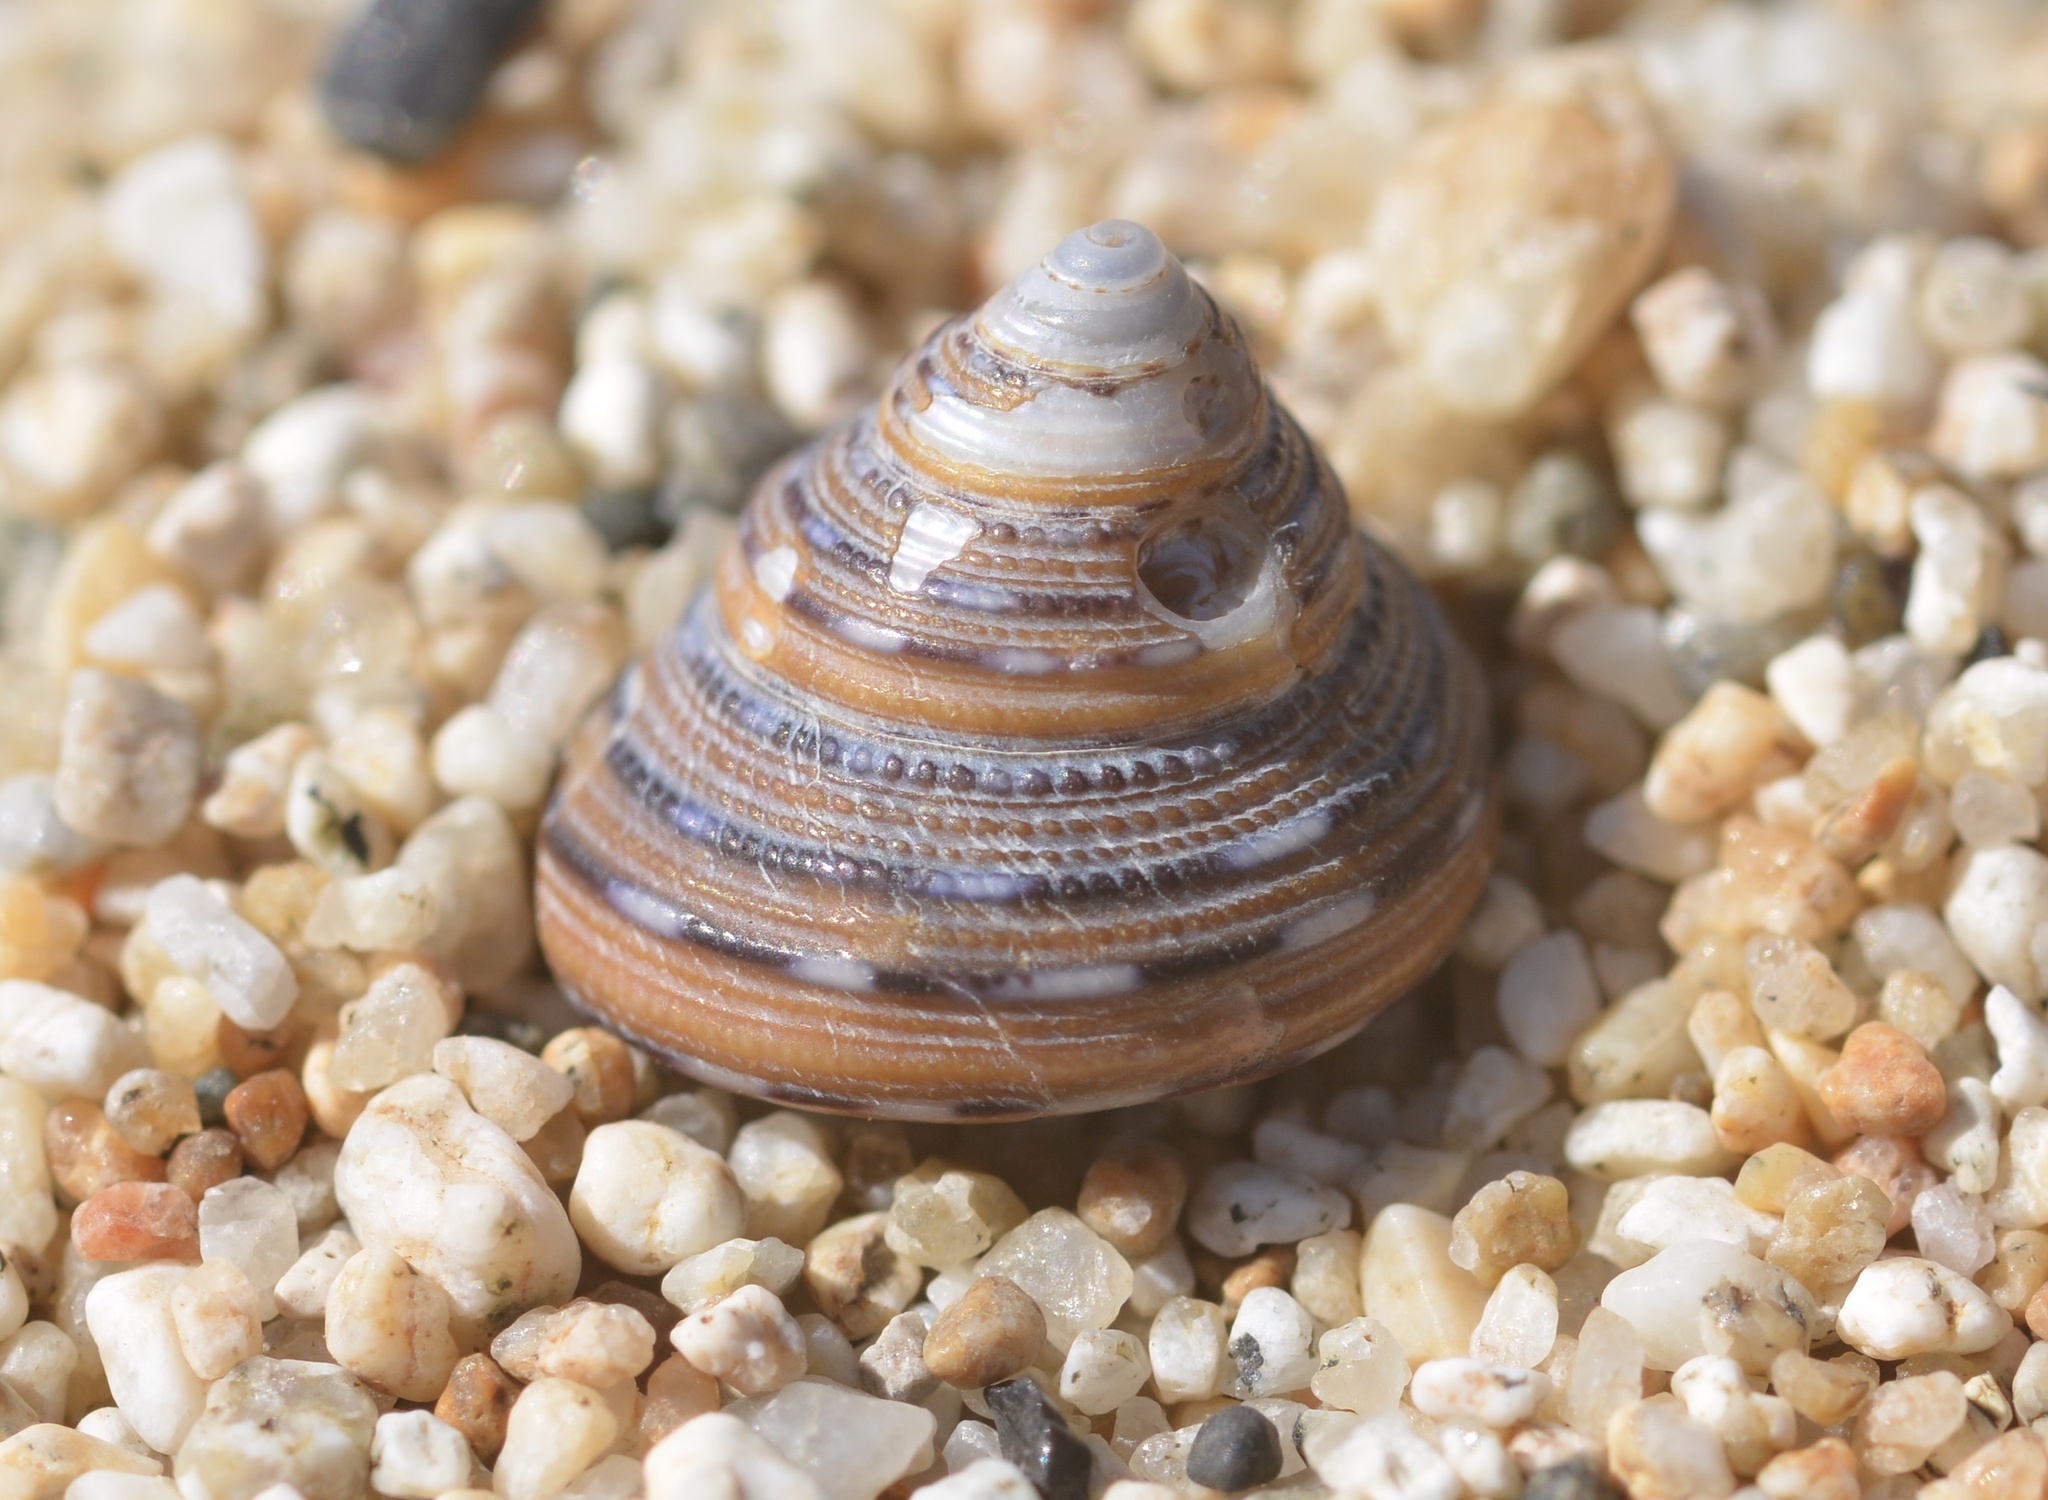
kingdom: Animalia
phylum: Mollusca
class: Gastropoda
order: Trochida
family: Calliostomatidae
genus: Calliostoma
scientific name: Calliostoma tricolor
